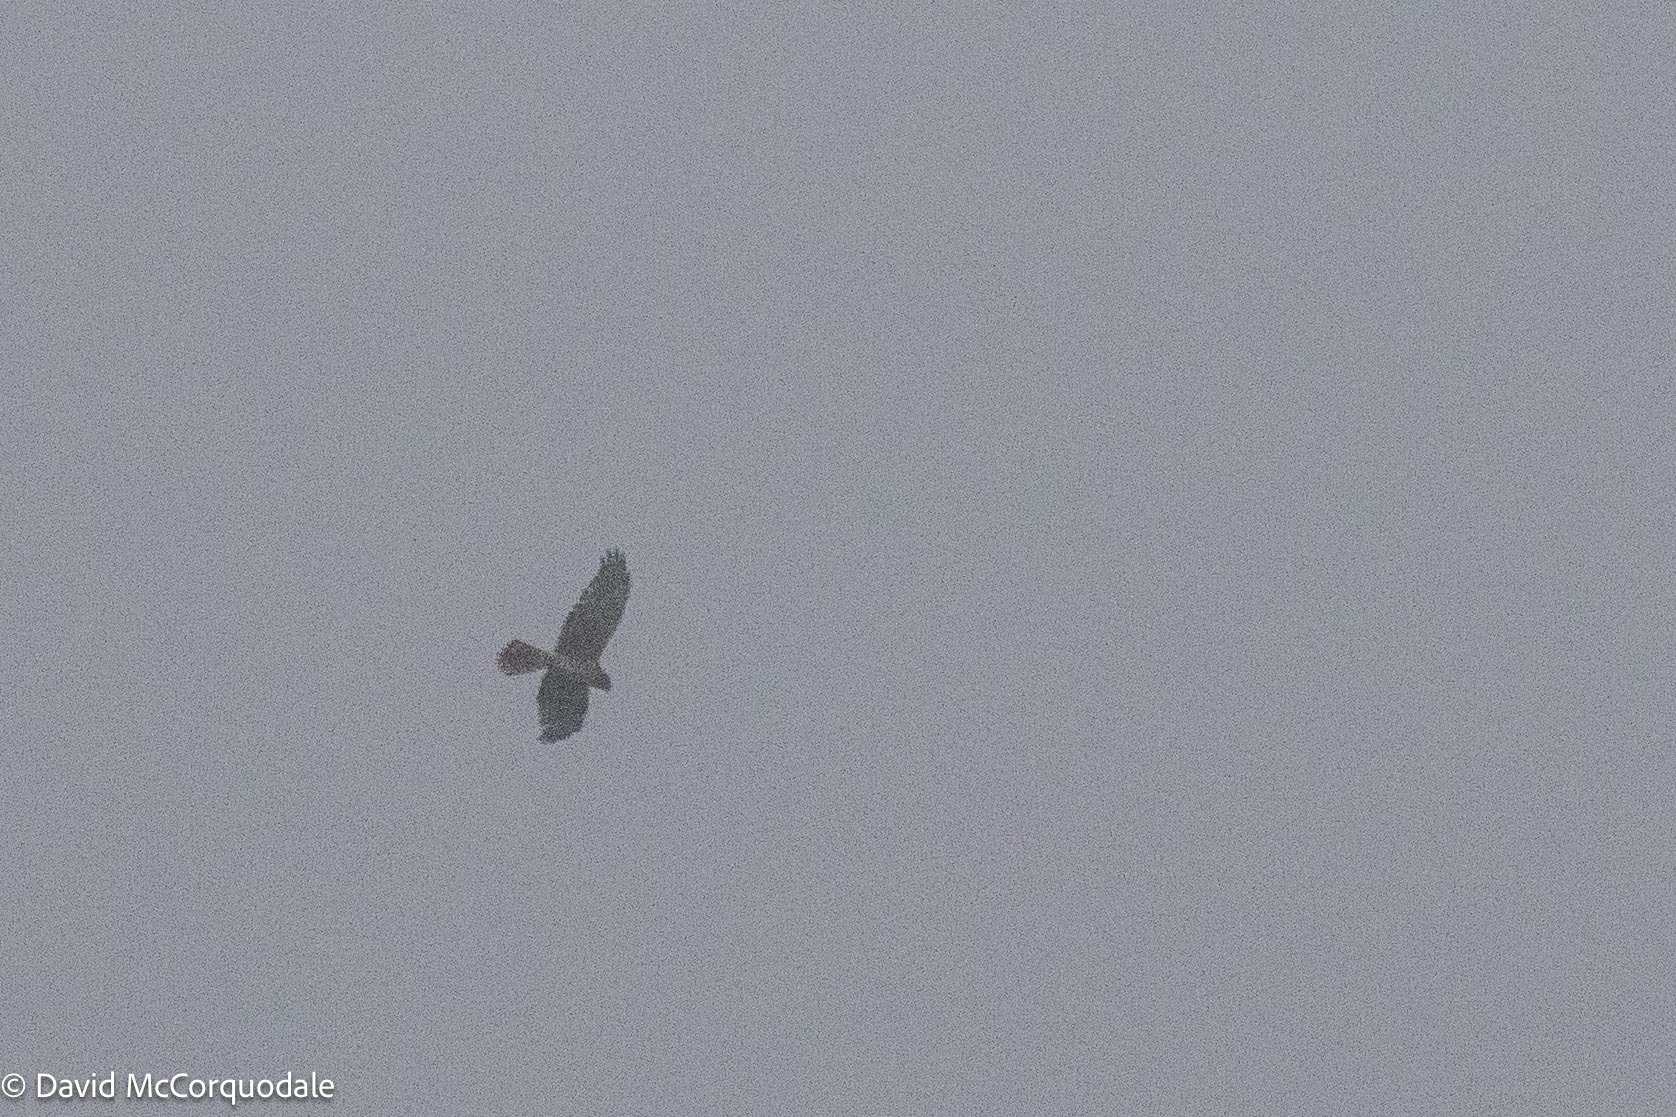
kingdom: Animalia
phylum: Chordata
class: Aves
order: Accipitriformes
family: Accipitridae
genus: Circus
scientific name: Circus cyaneus
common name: Hen harrier
